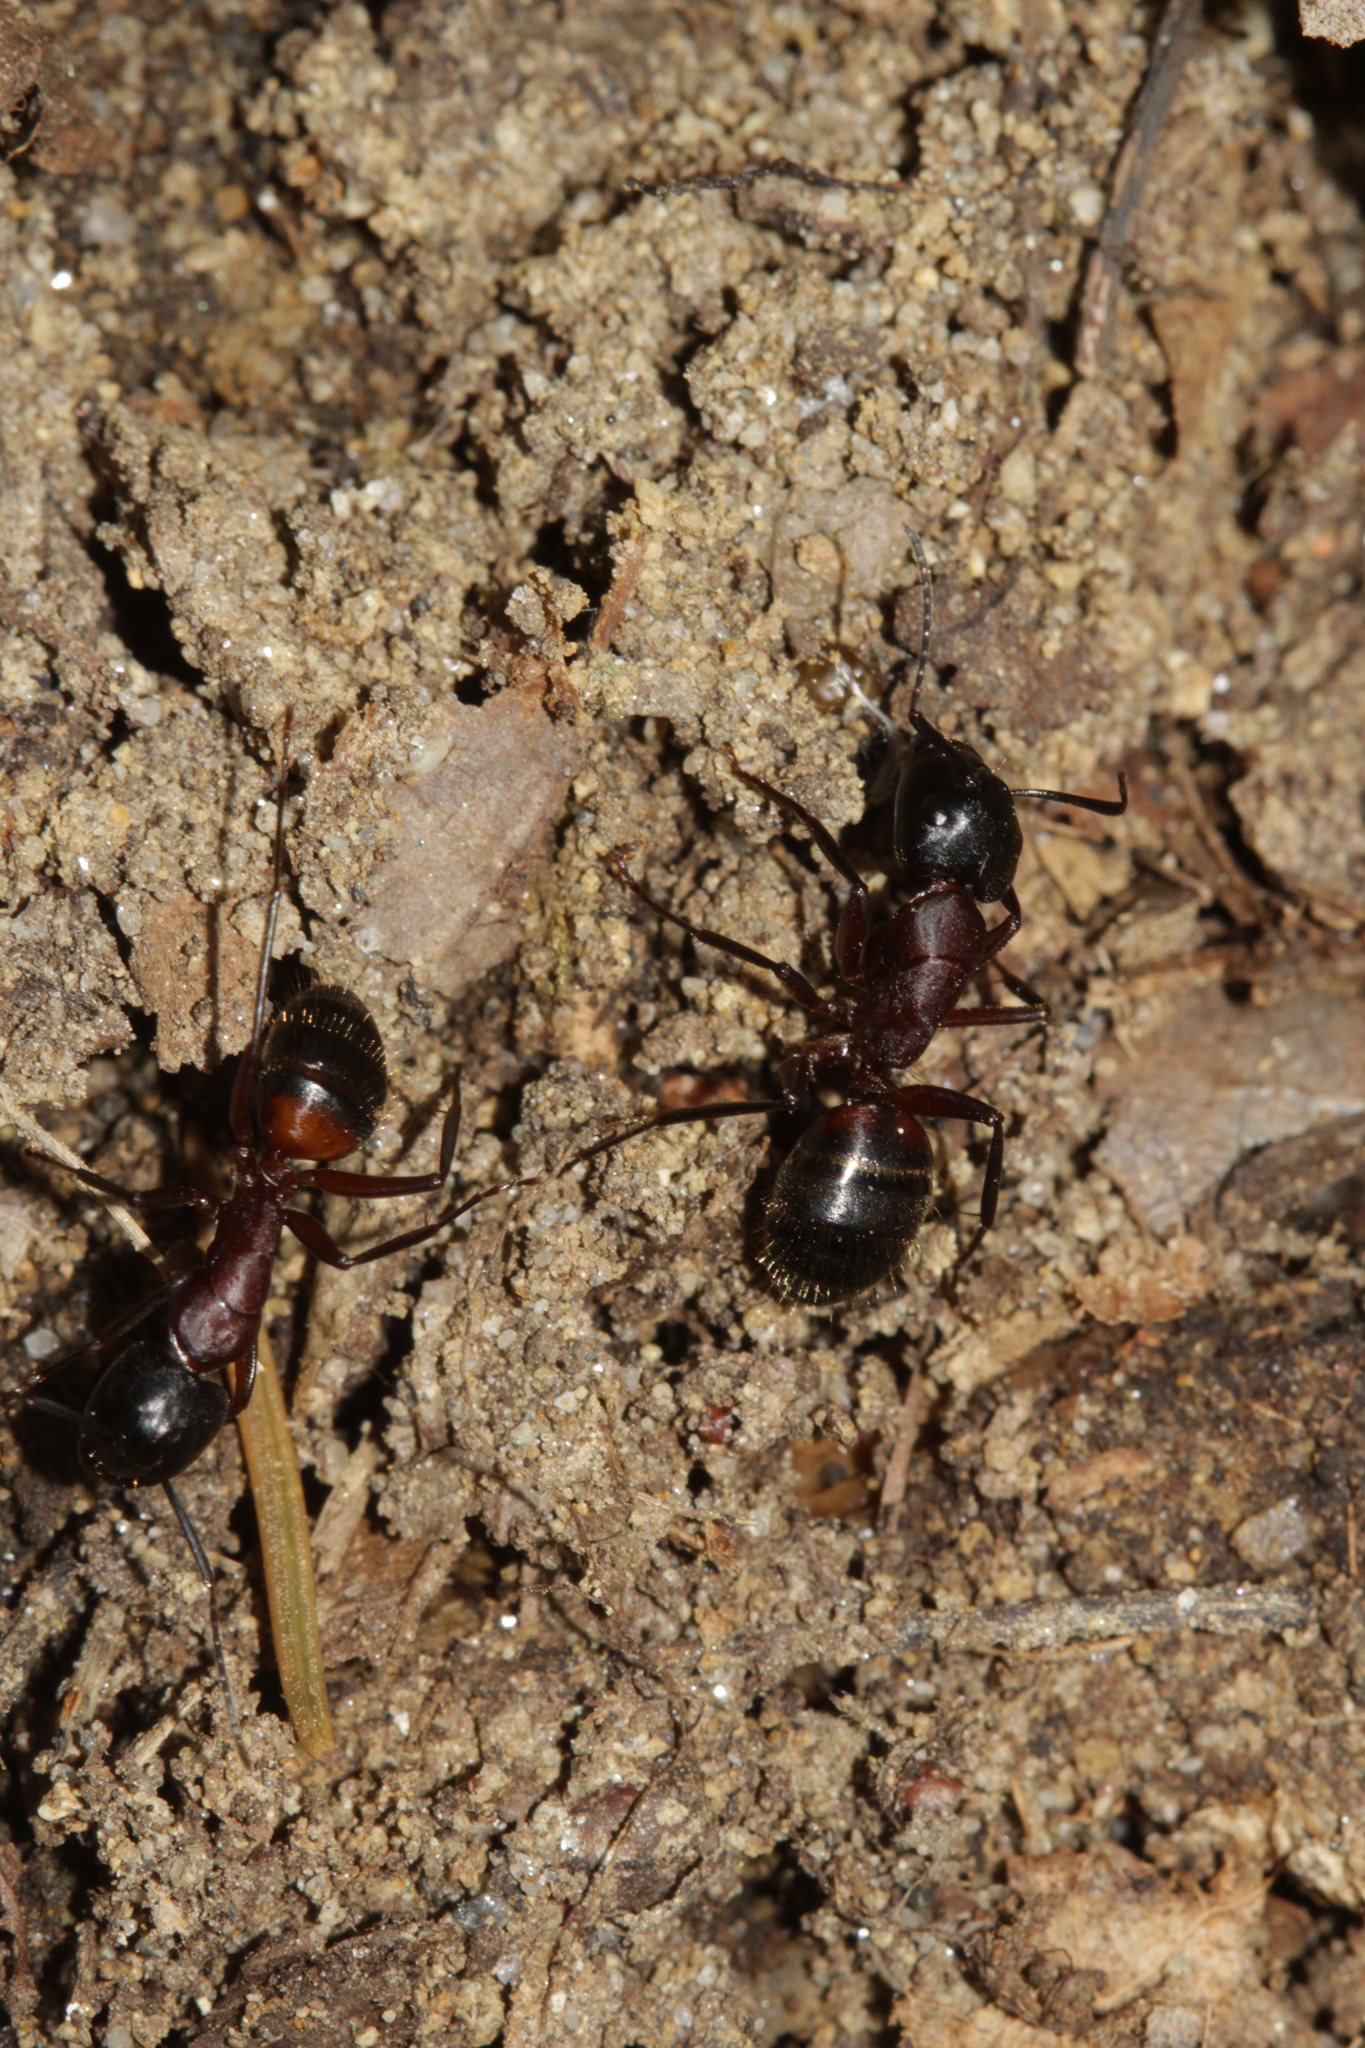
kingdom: Animalia
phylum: Arthropoda
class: Insecta
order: Hymenoptera
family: Formicidae
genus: Camponotus
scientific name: Camponotus ligniperdus
